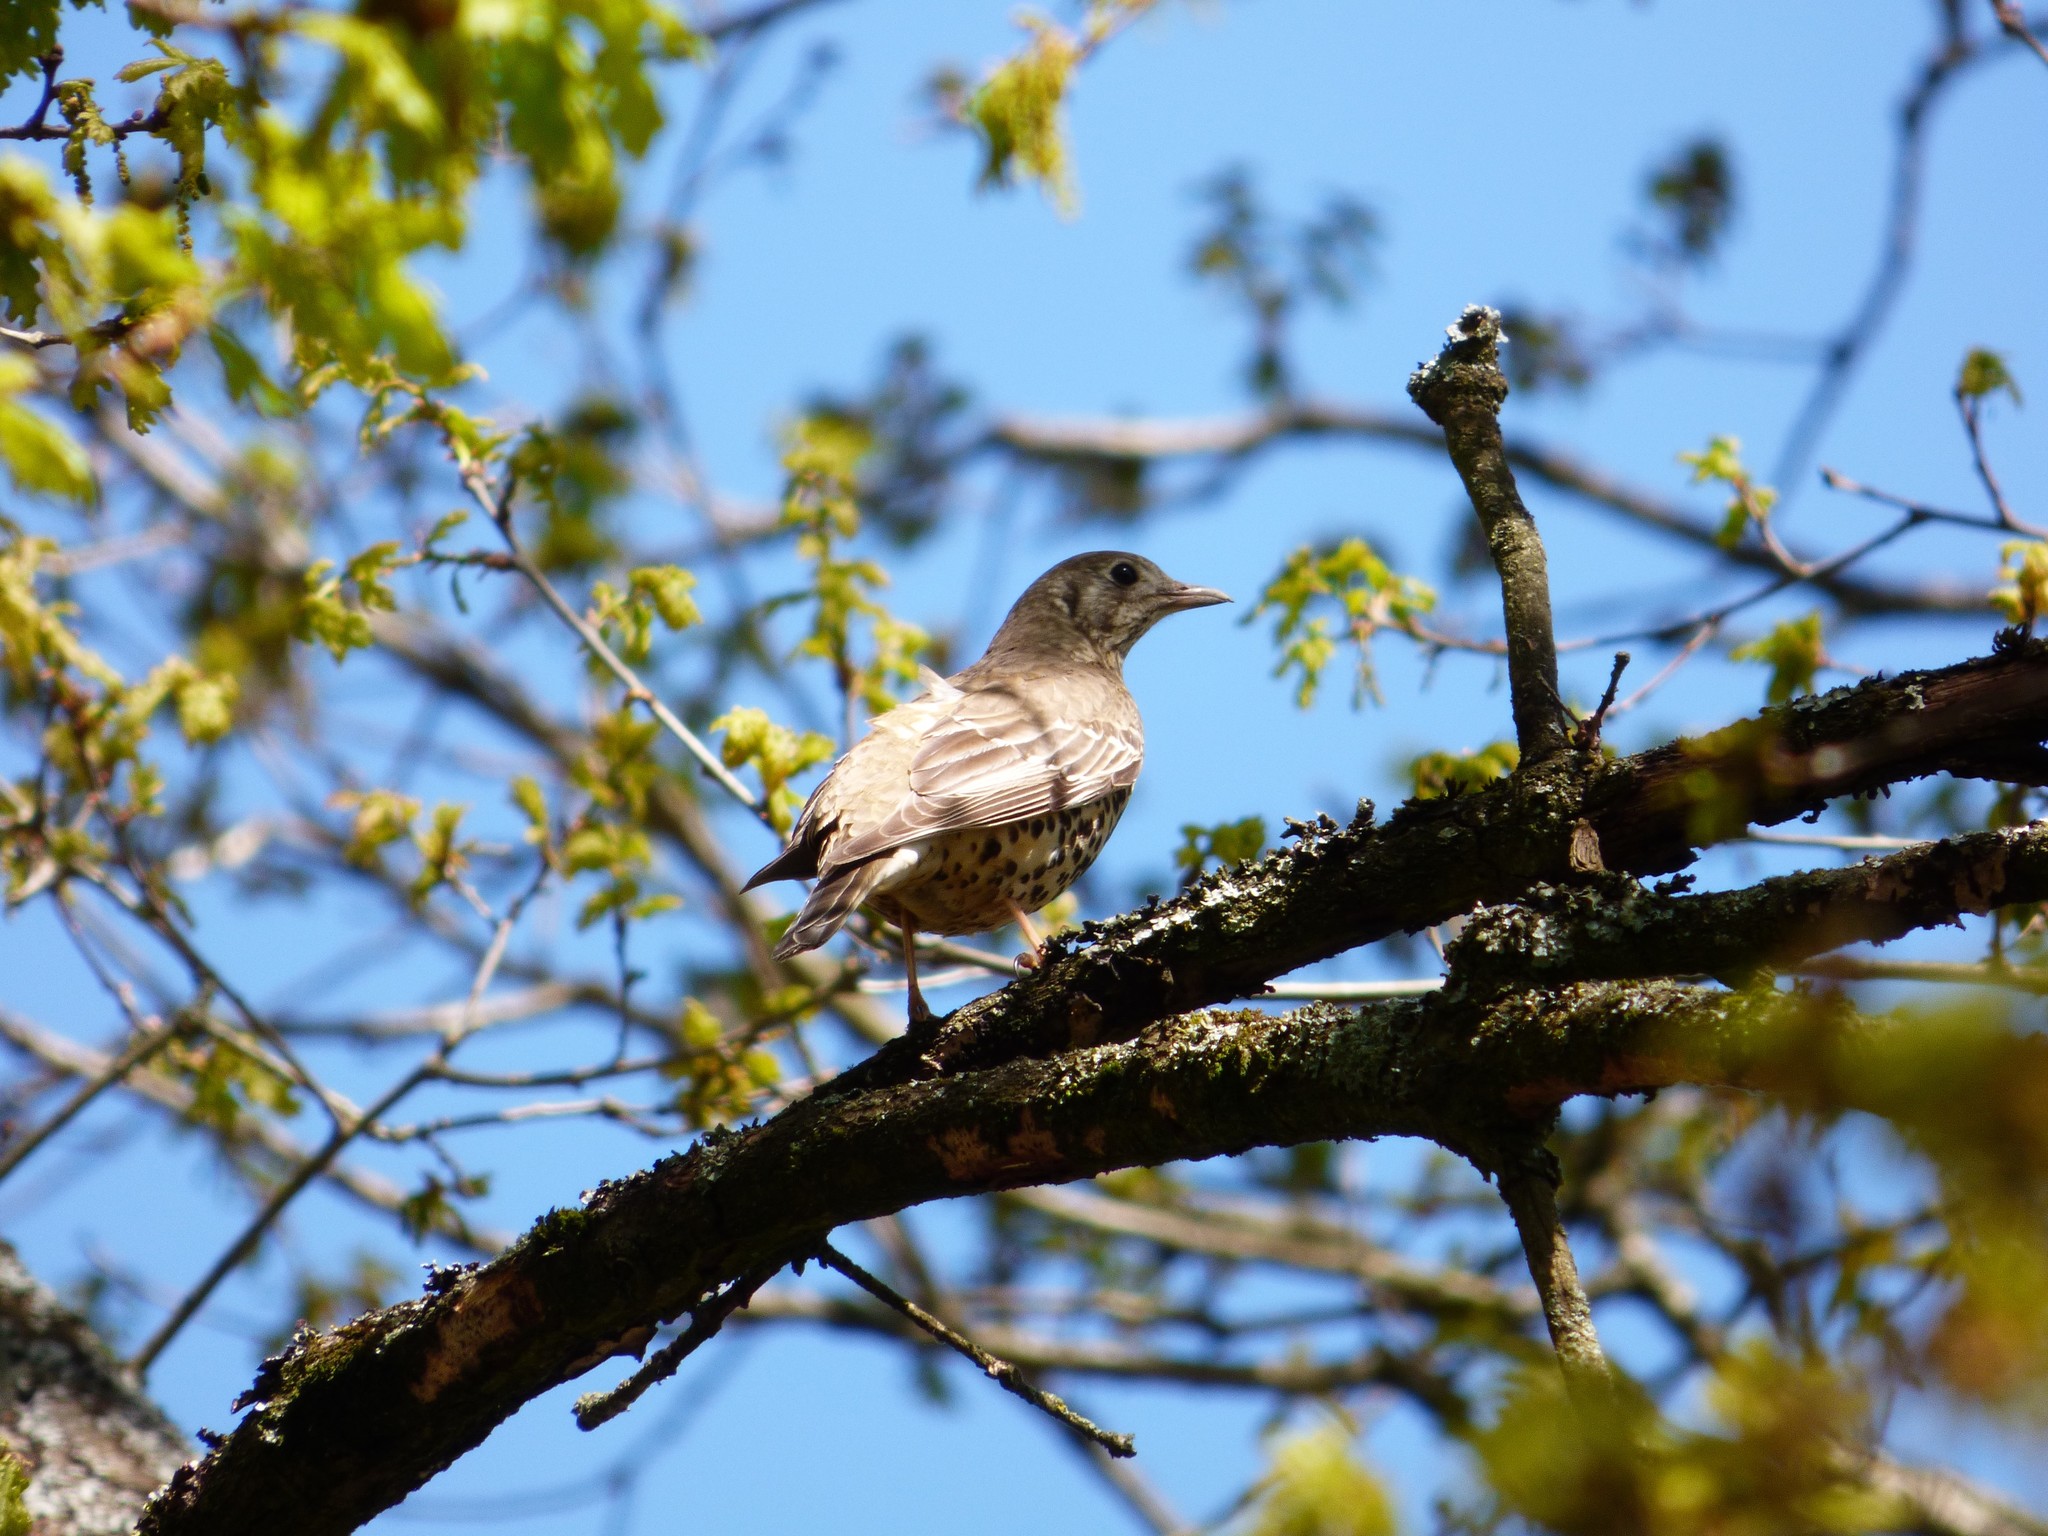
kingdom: Animalia
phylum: Chordata
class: Aves
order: Passeriformes
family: Turdidae
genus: Turdus
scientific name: Turdus viscivorus
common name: Mistle thrush
